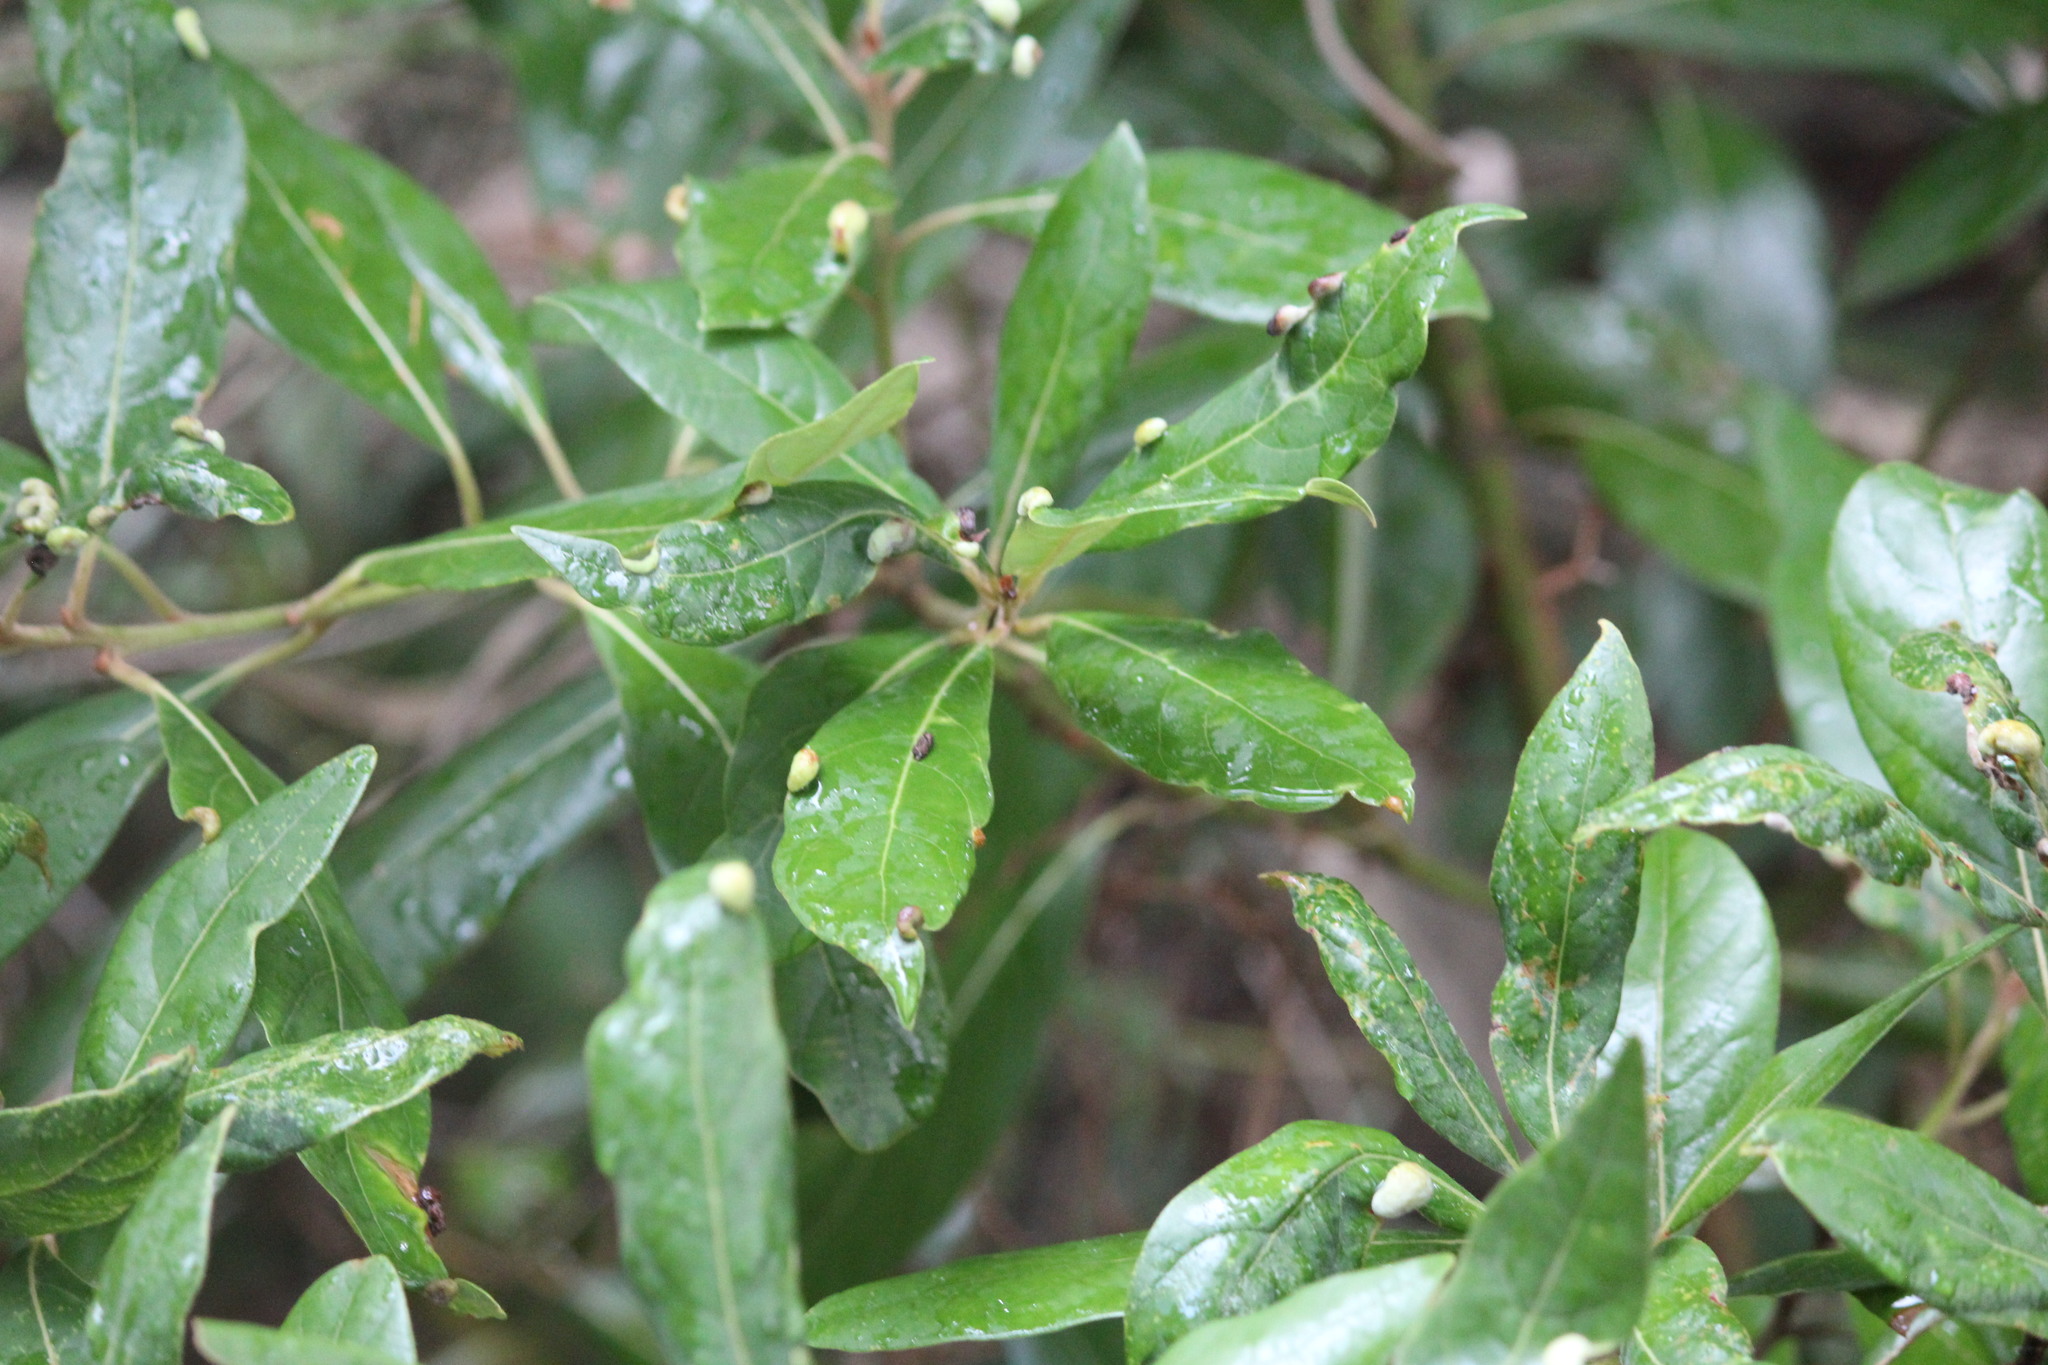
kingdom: Plantae
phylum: Tracheophyta
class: Magnoliopsida
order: Laurales
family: Lauraceae
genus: Persea
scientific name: Persea palustris
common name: Swampbay
